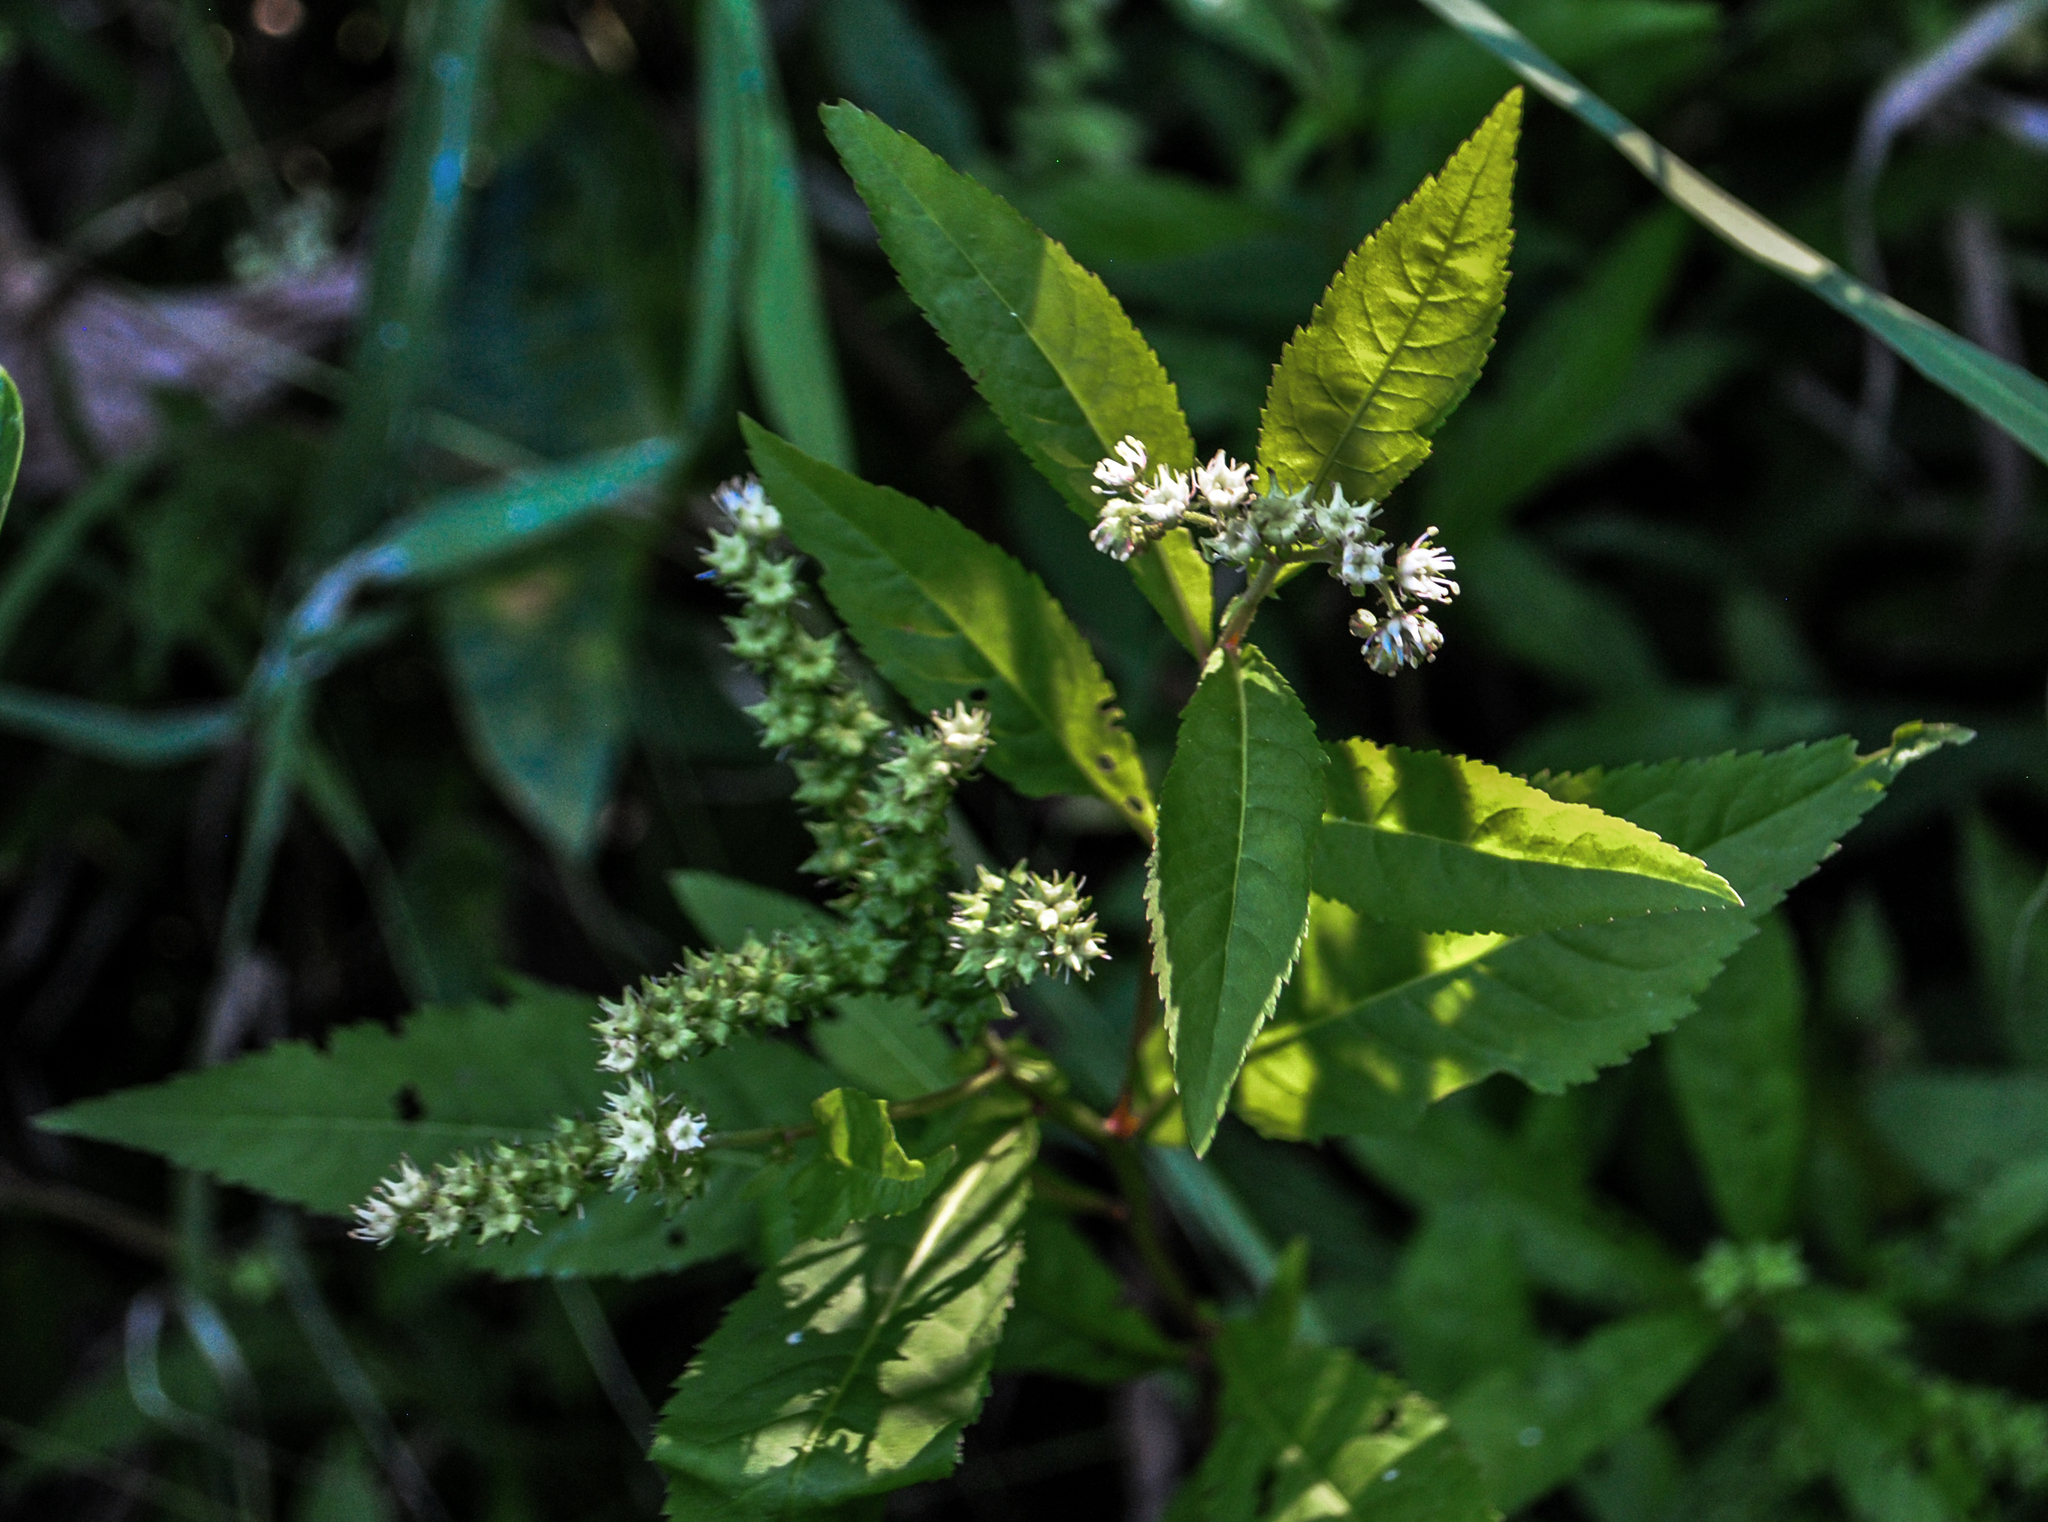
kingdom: Plantae
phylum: Tracheophyta
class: Magnoliopsida
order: Saxifragales
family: Penthoraceae
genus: Penthorum
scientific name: Penthorum sedoides
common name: Ditch stonecrop
